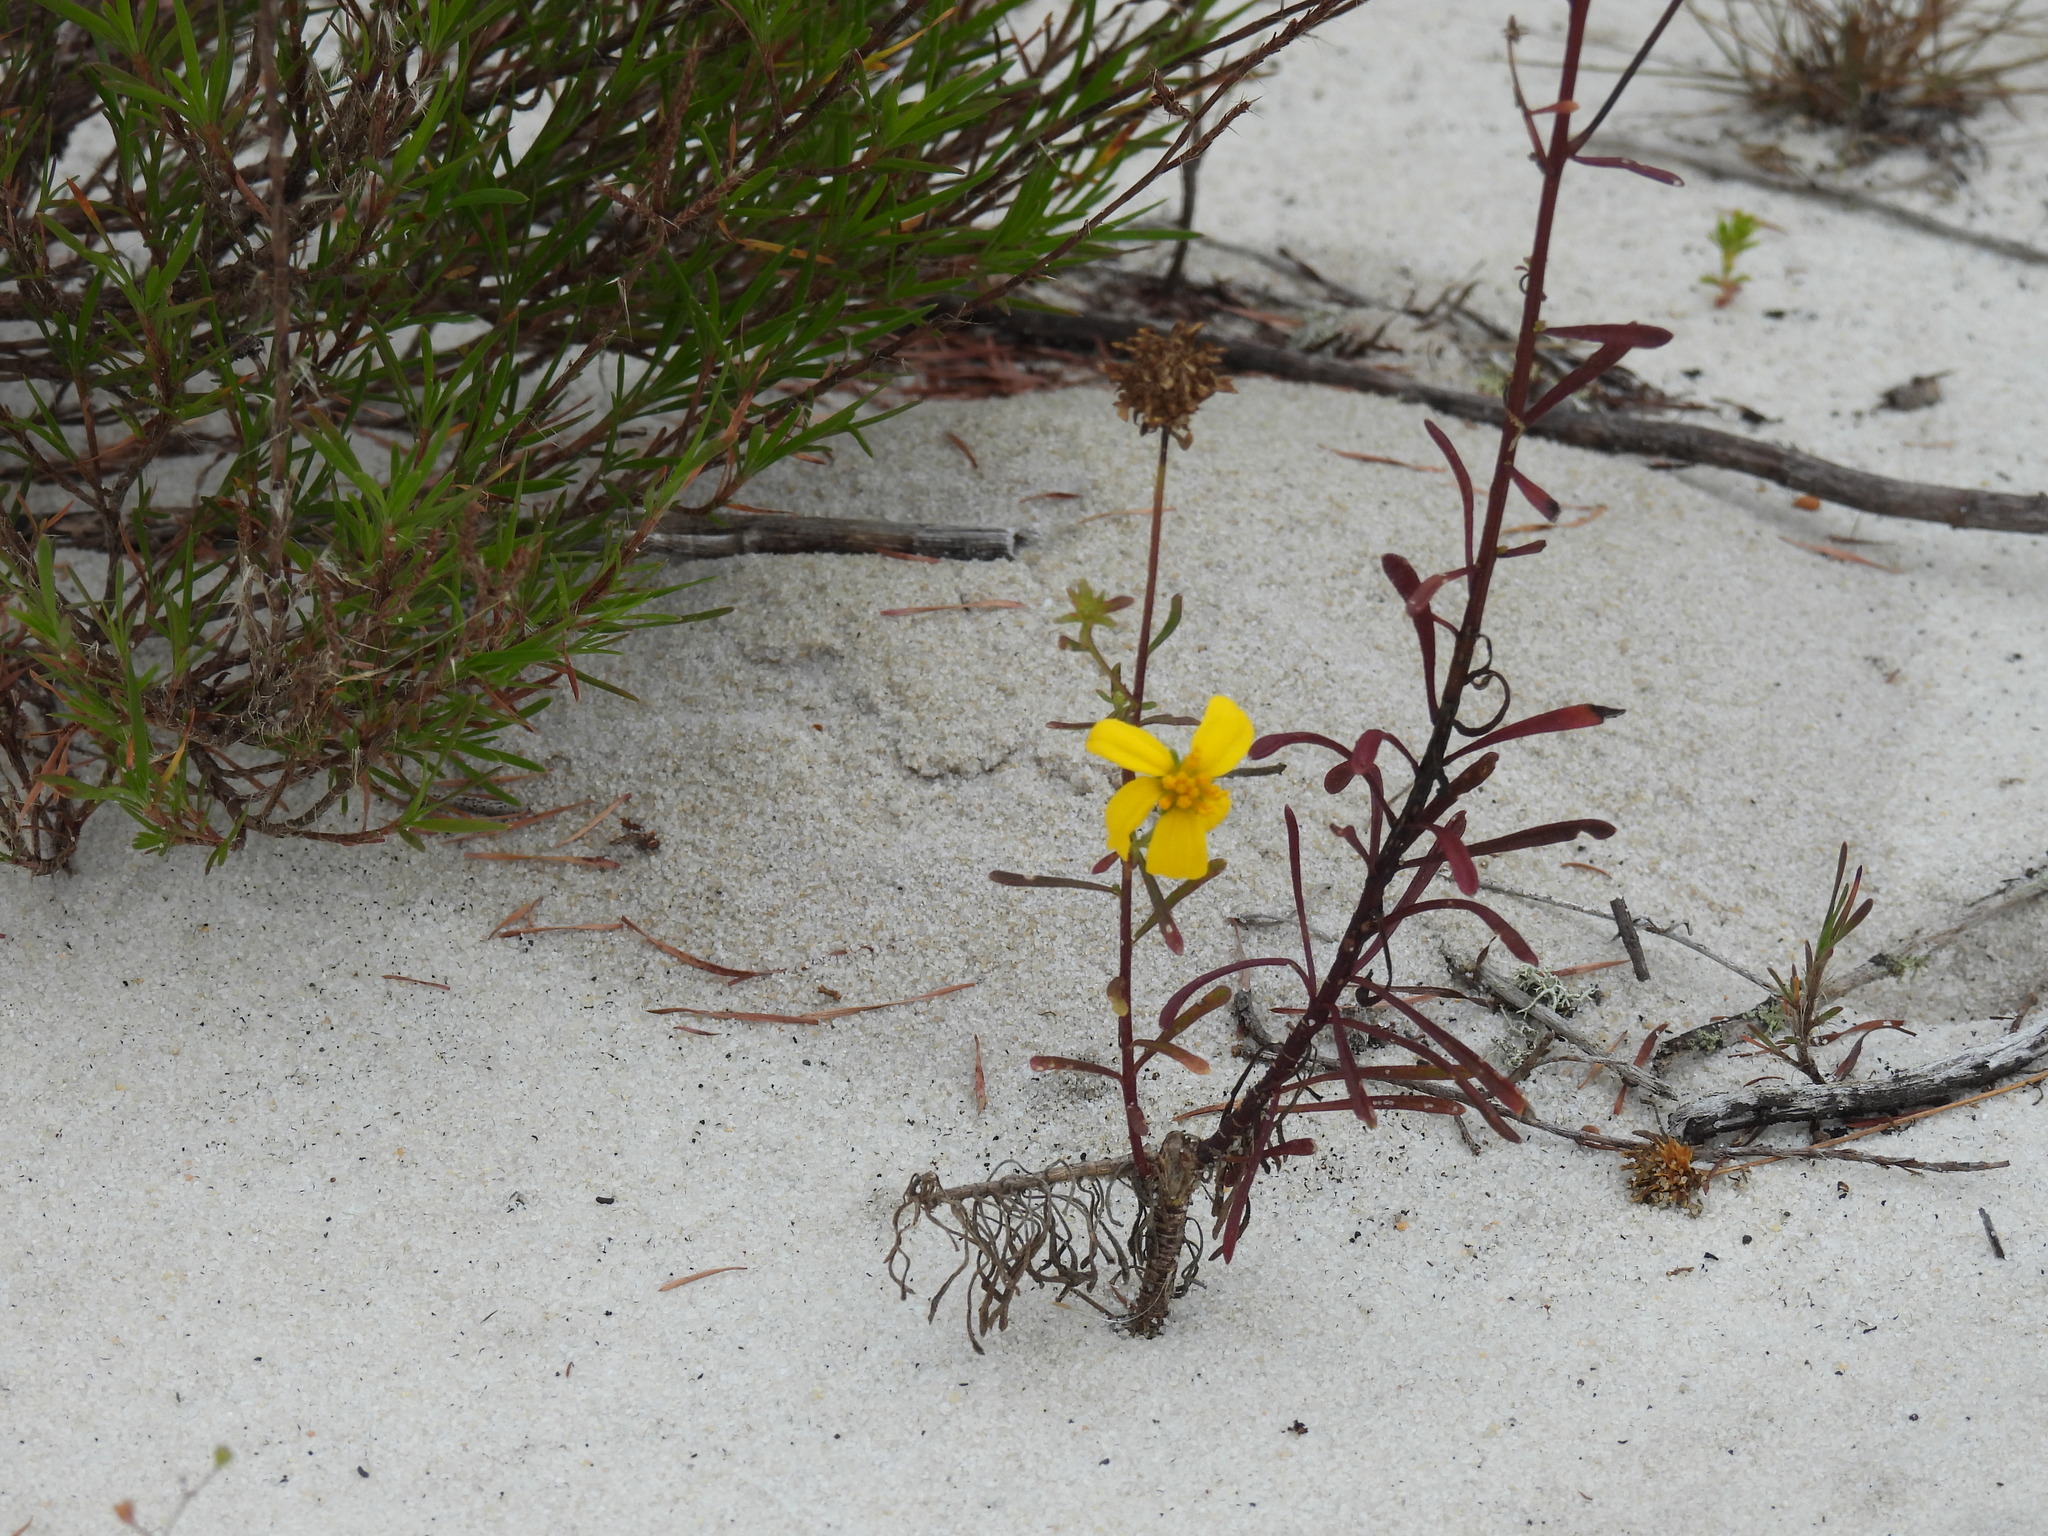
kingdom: Plantae
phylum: Tracheophyta
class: Magnoliopsida
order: Asterales
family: Asteraceae
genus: Balduina
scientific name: Balduina angustifolia
